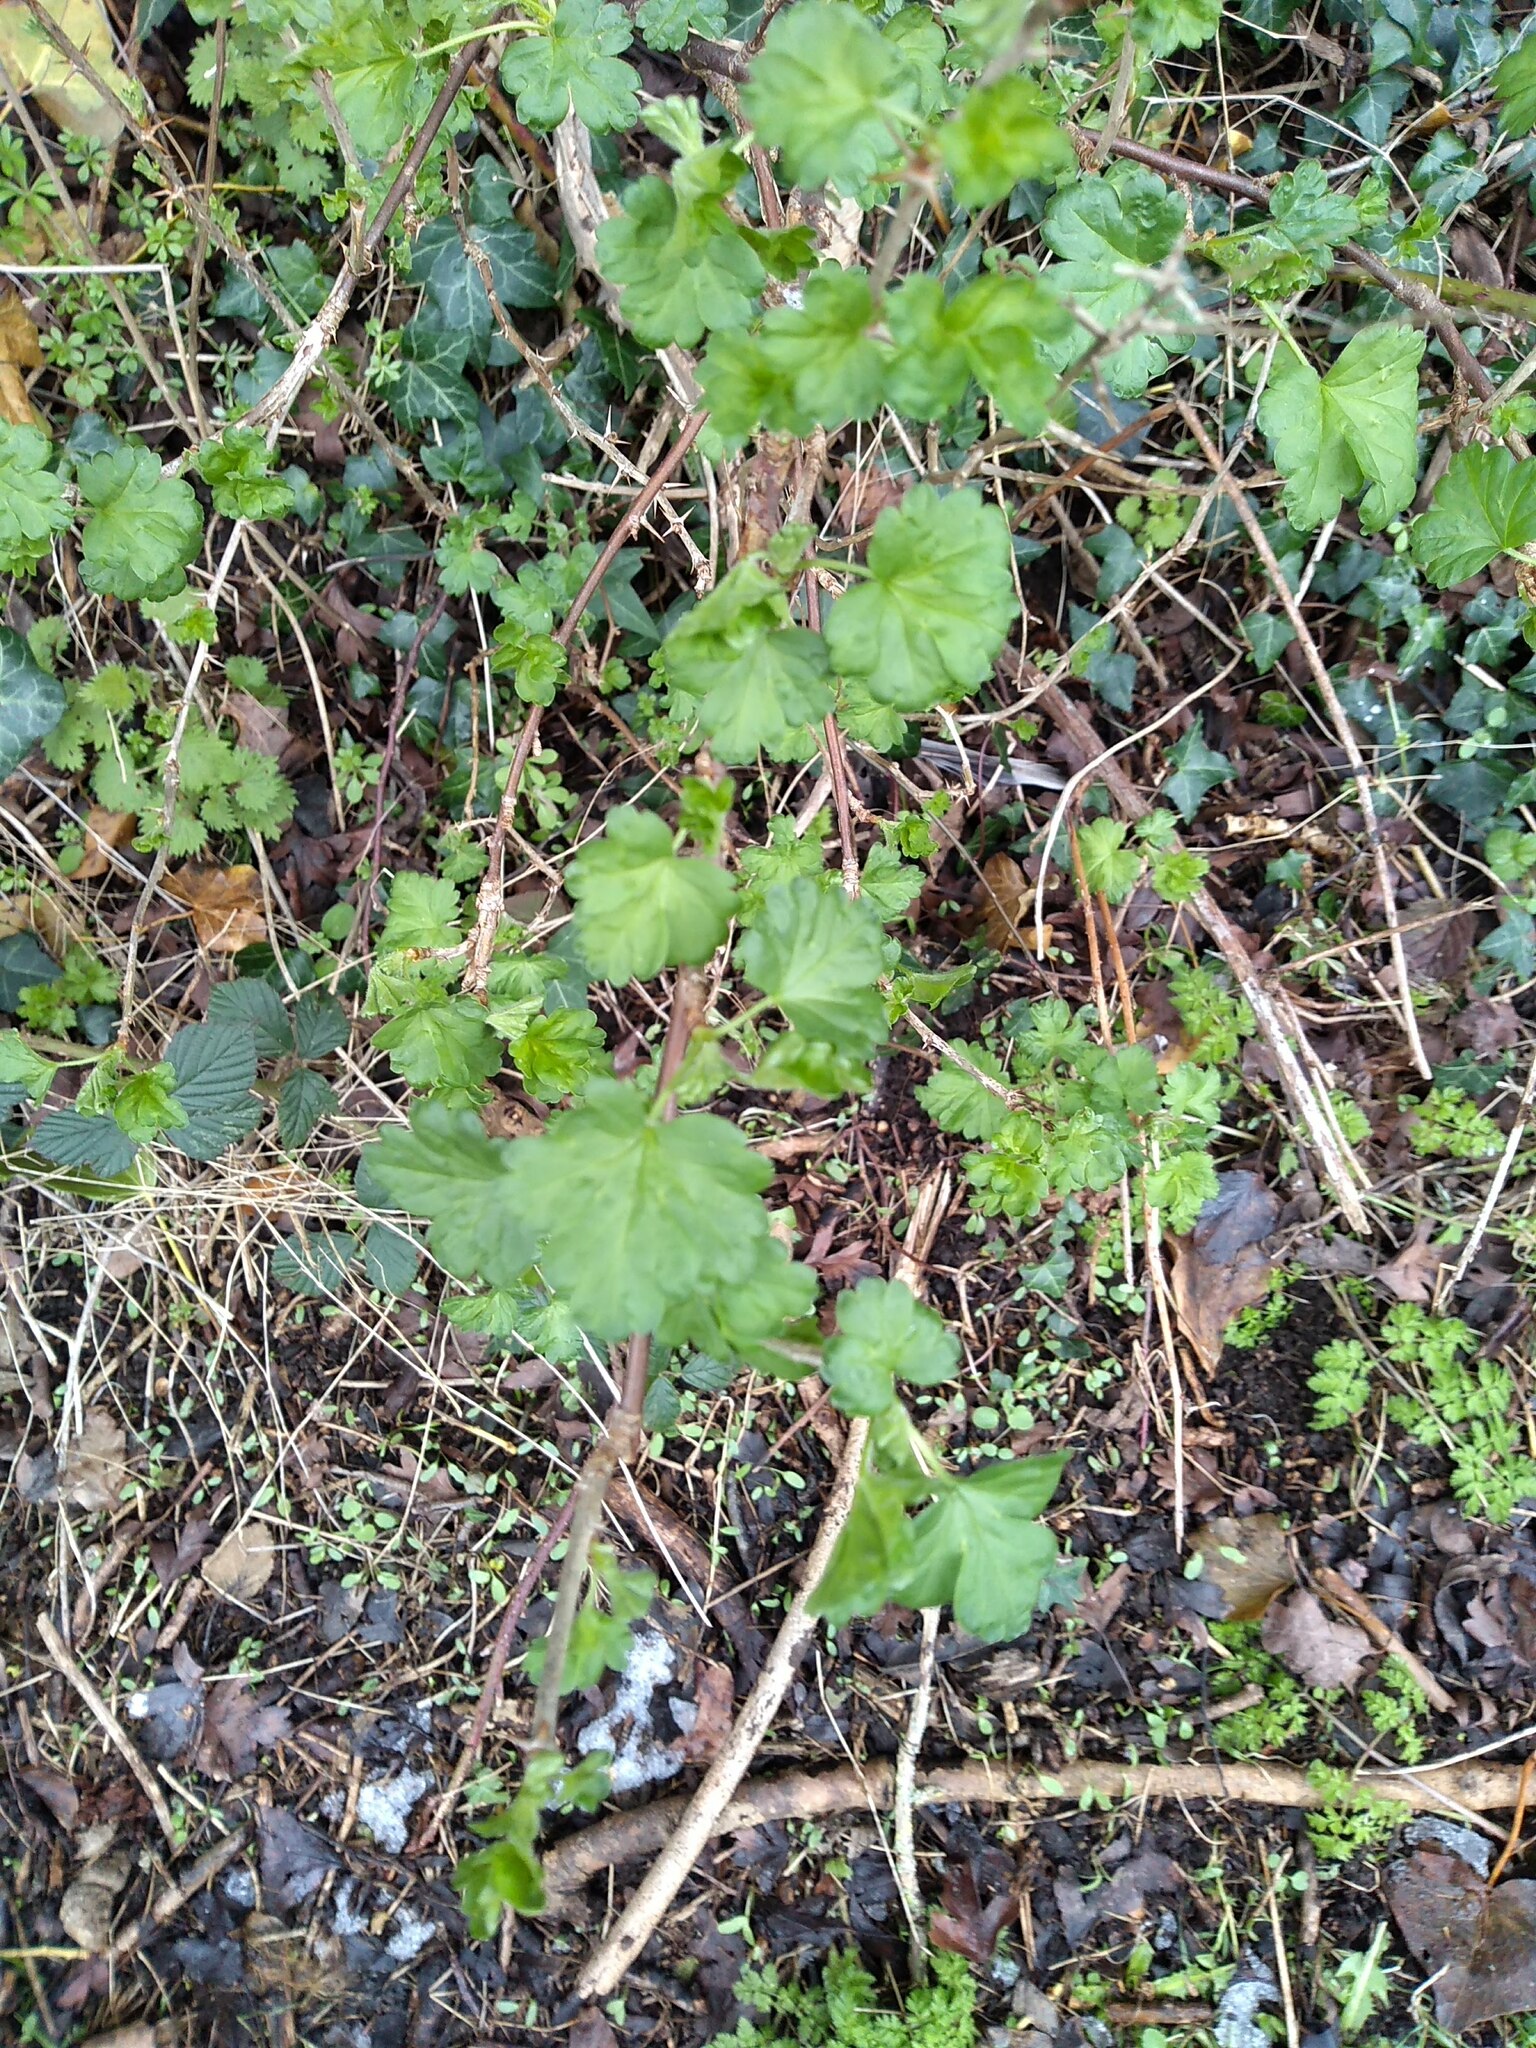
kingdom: Plantae
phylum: Tracheophyta
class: Magnoliopsida
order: Saxifragales
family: Grossulariaceae
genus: Ribes
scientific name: Ribes uva-crispa
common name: Gooseberry
